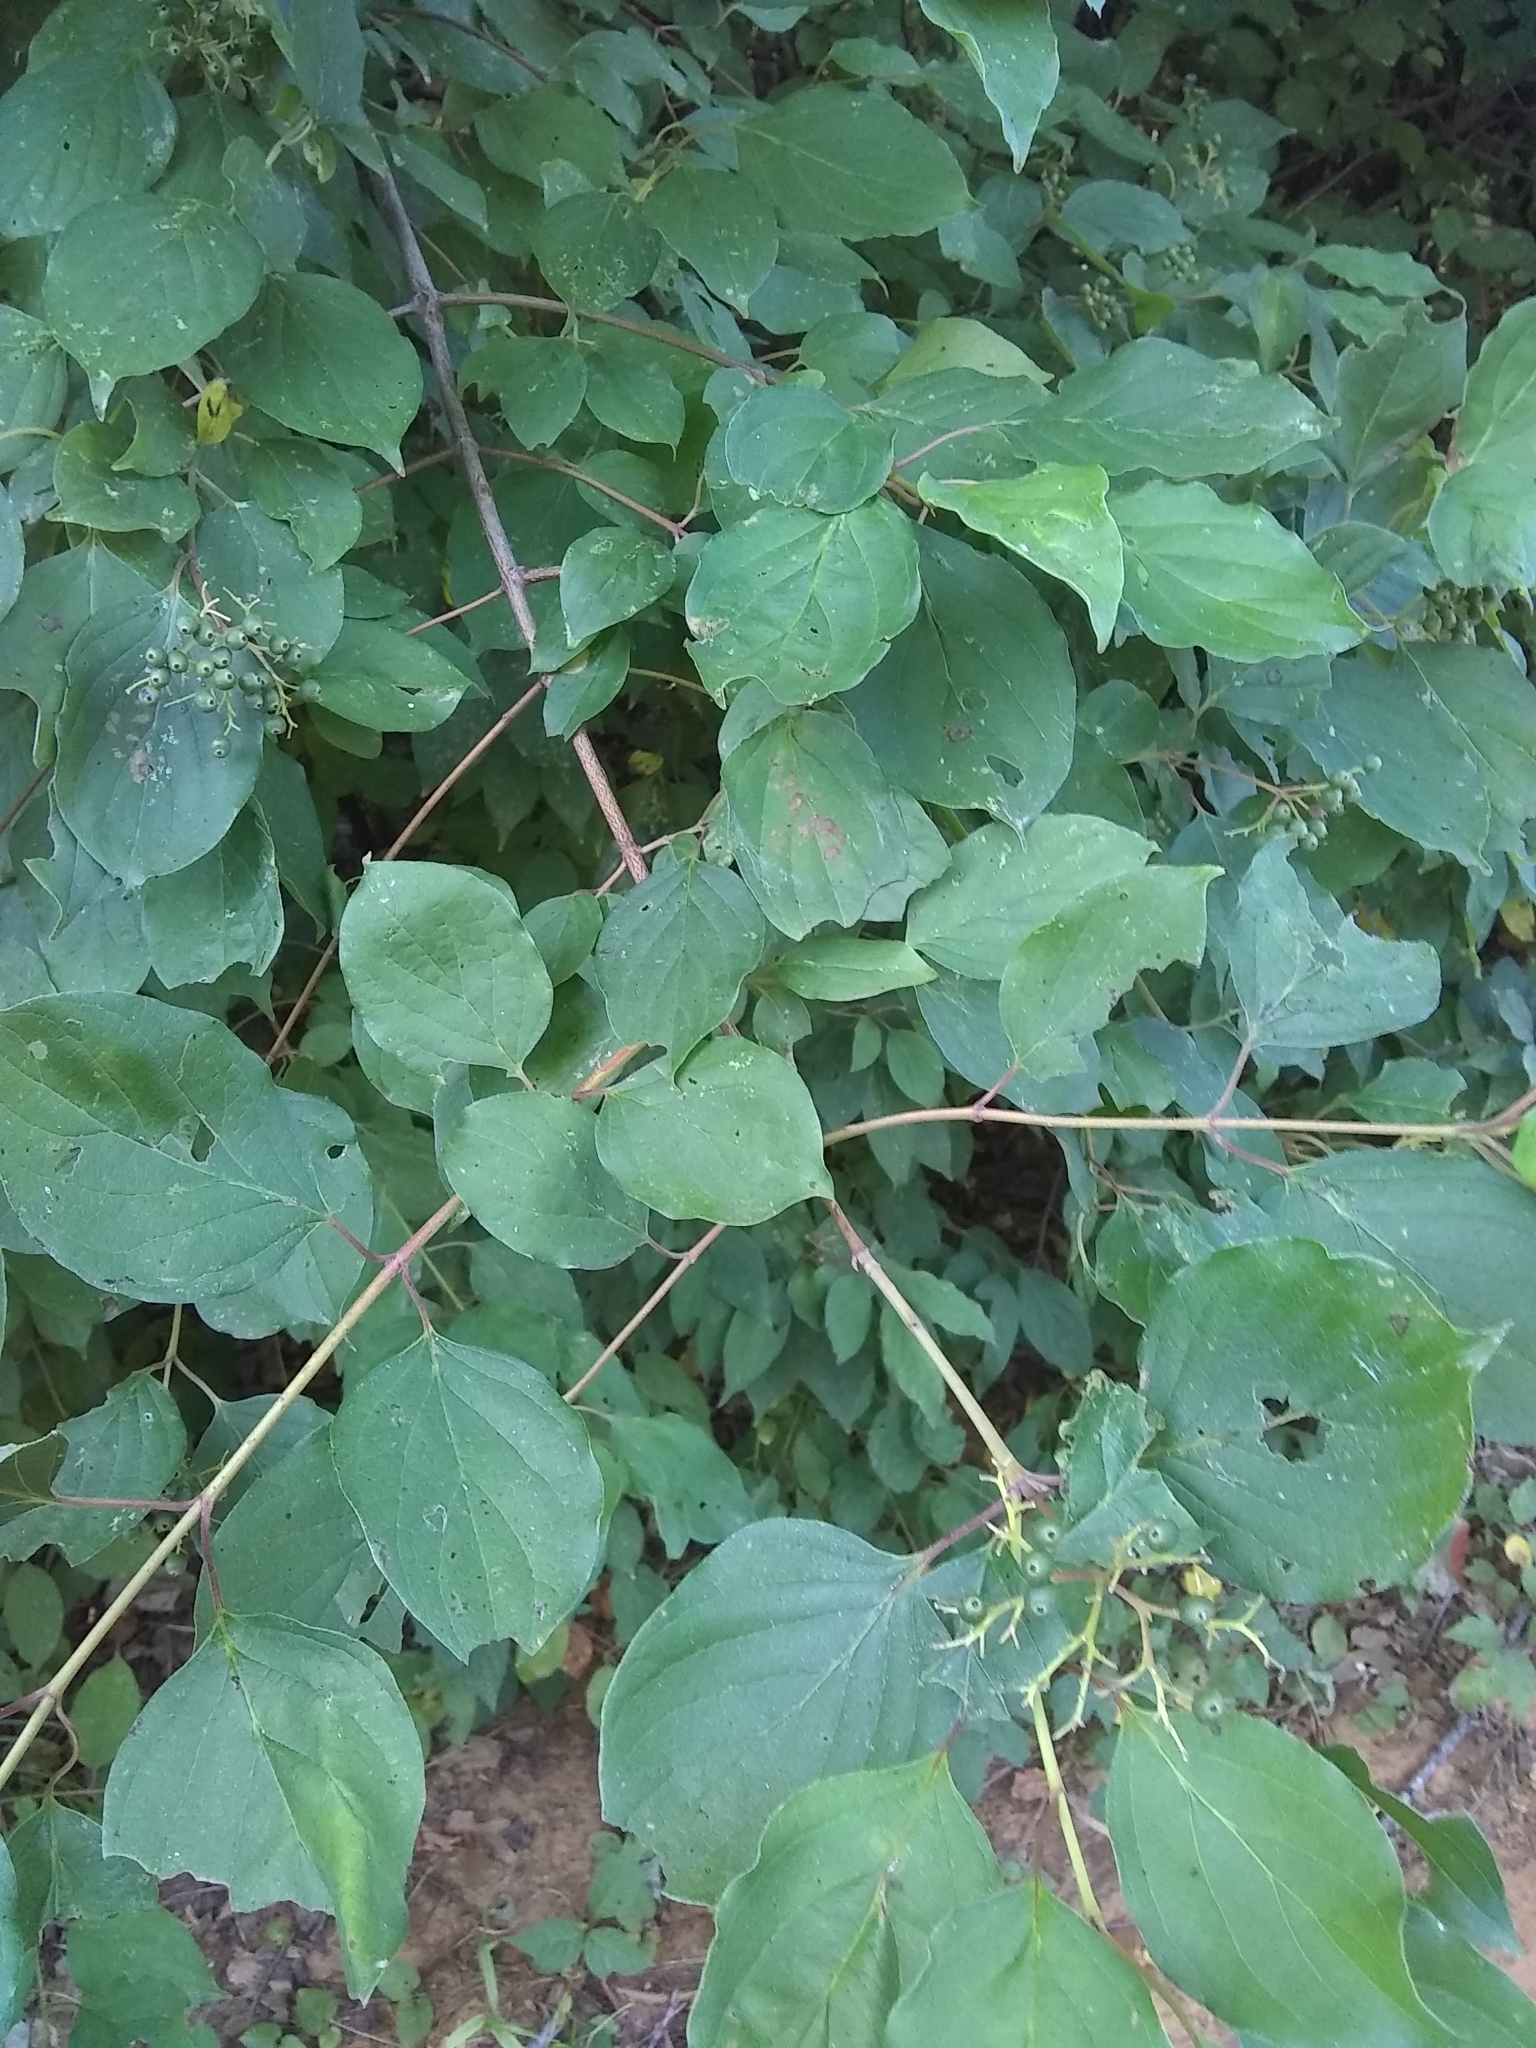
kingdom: Plantae
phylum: Tracheophyta
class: Magnoliopsida
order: Cornales
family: Cornaceae
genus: Cornus
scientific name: Cornus drummondii
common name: Rough-leaf dogwood
